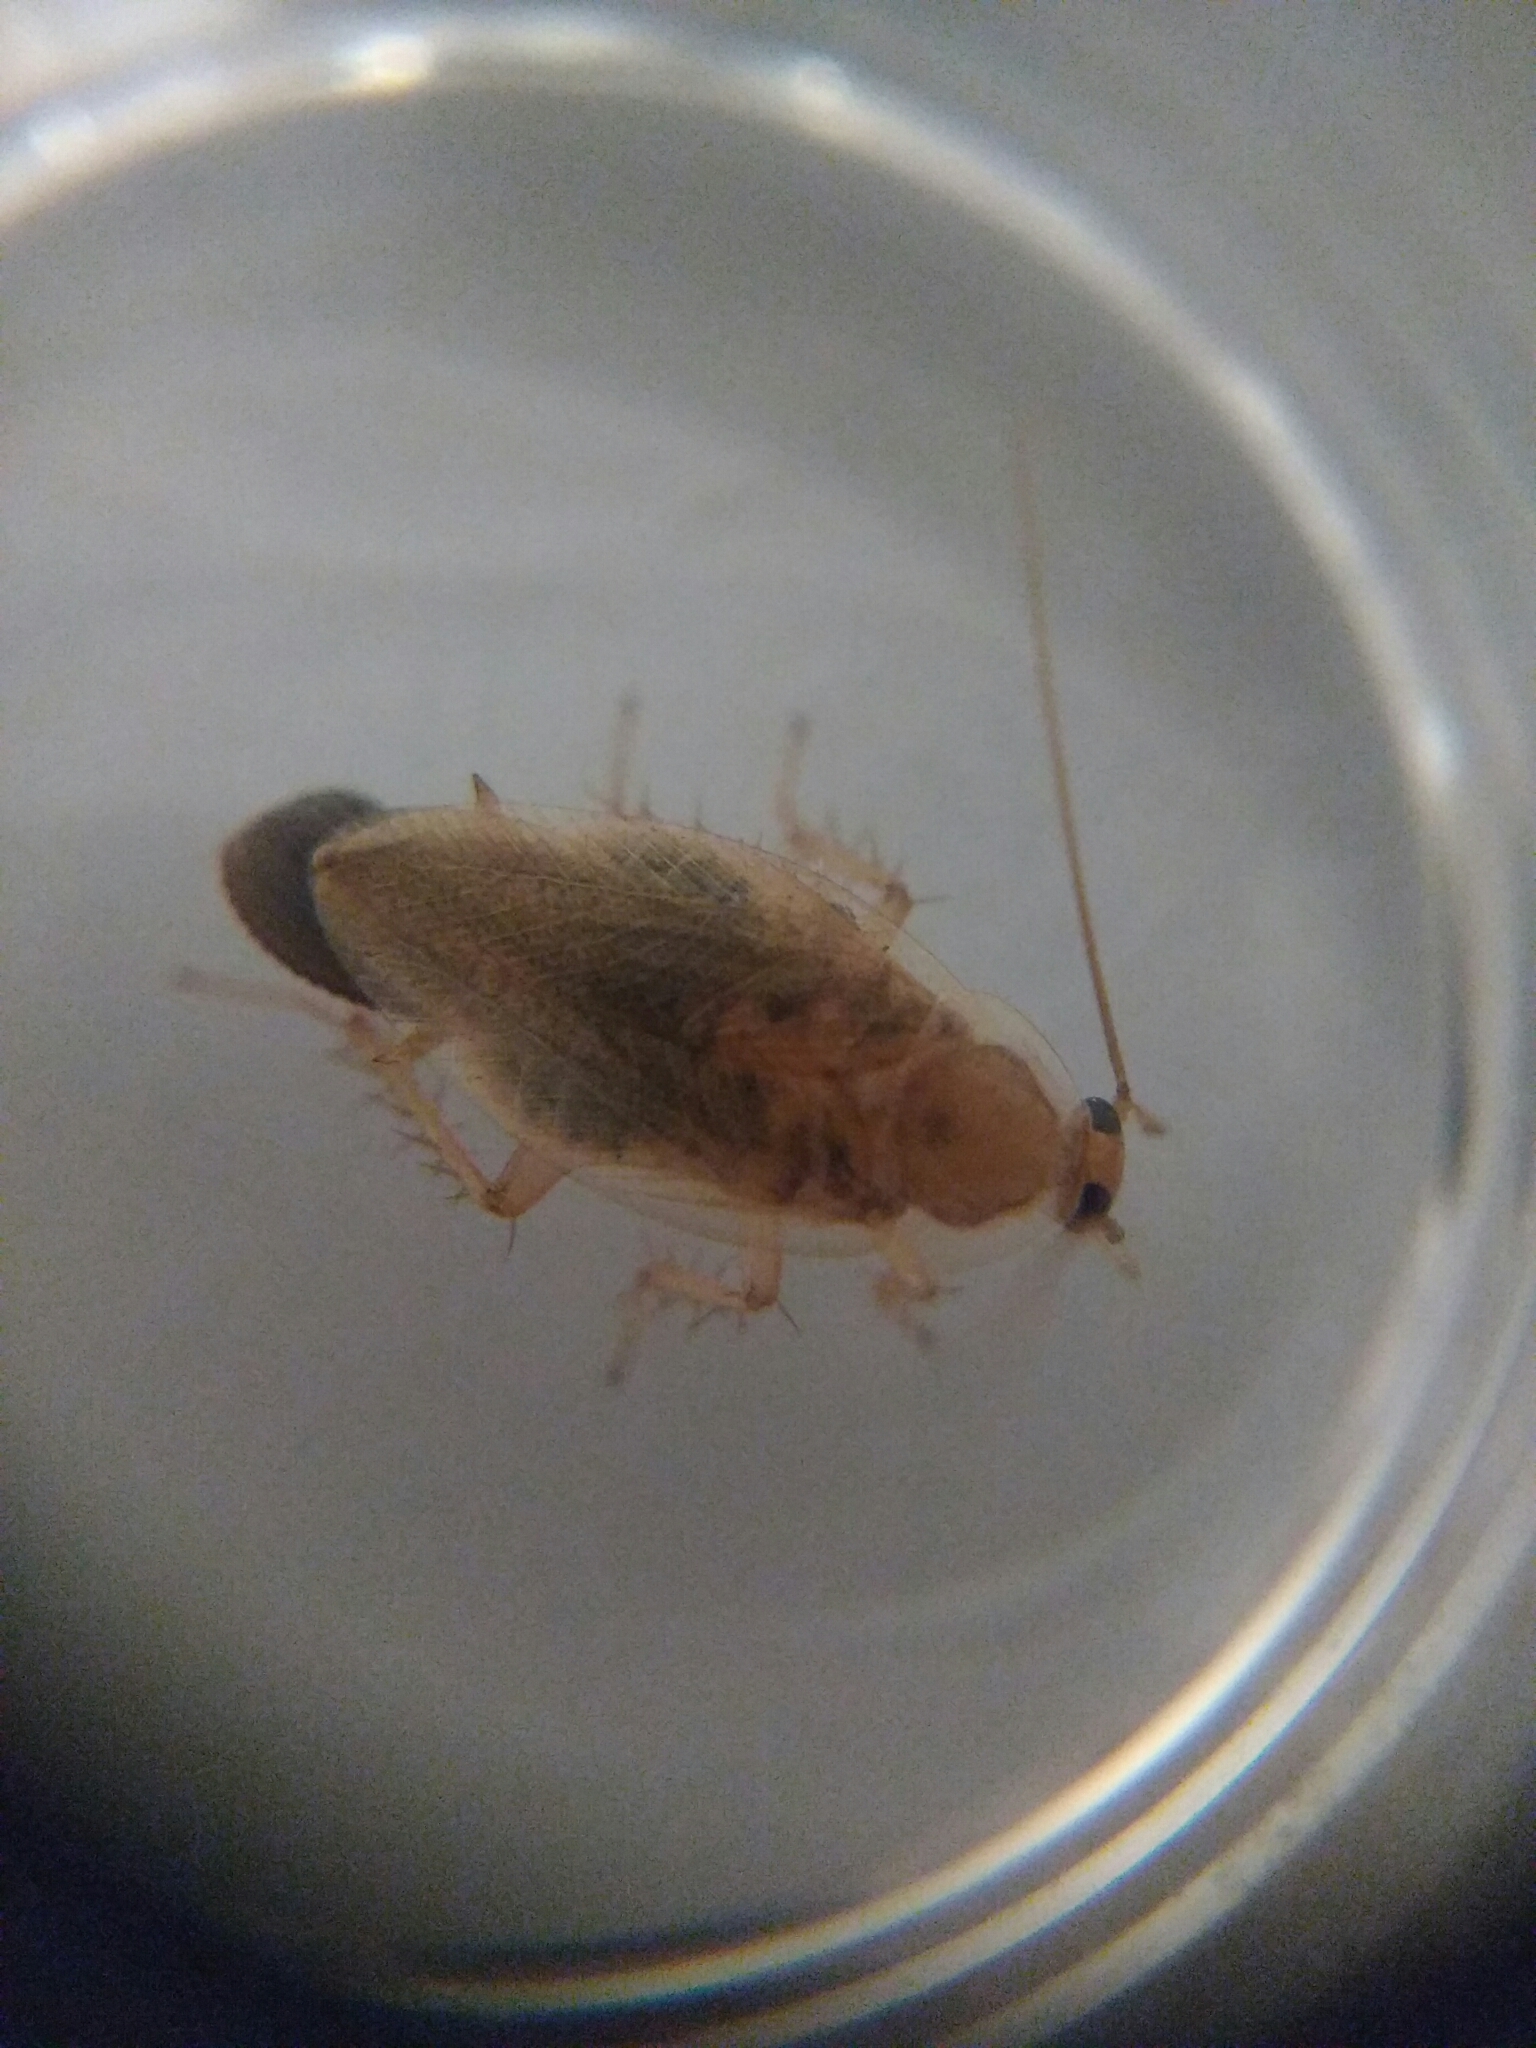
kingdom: Animalia
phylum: Arthropoda
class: Insecta
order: Blattodea
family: Ectobiidae
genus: Ectobius
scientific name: Ectobius vittiventris
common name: Garden cockroach
